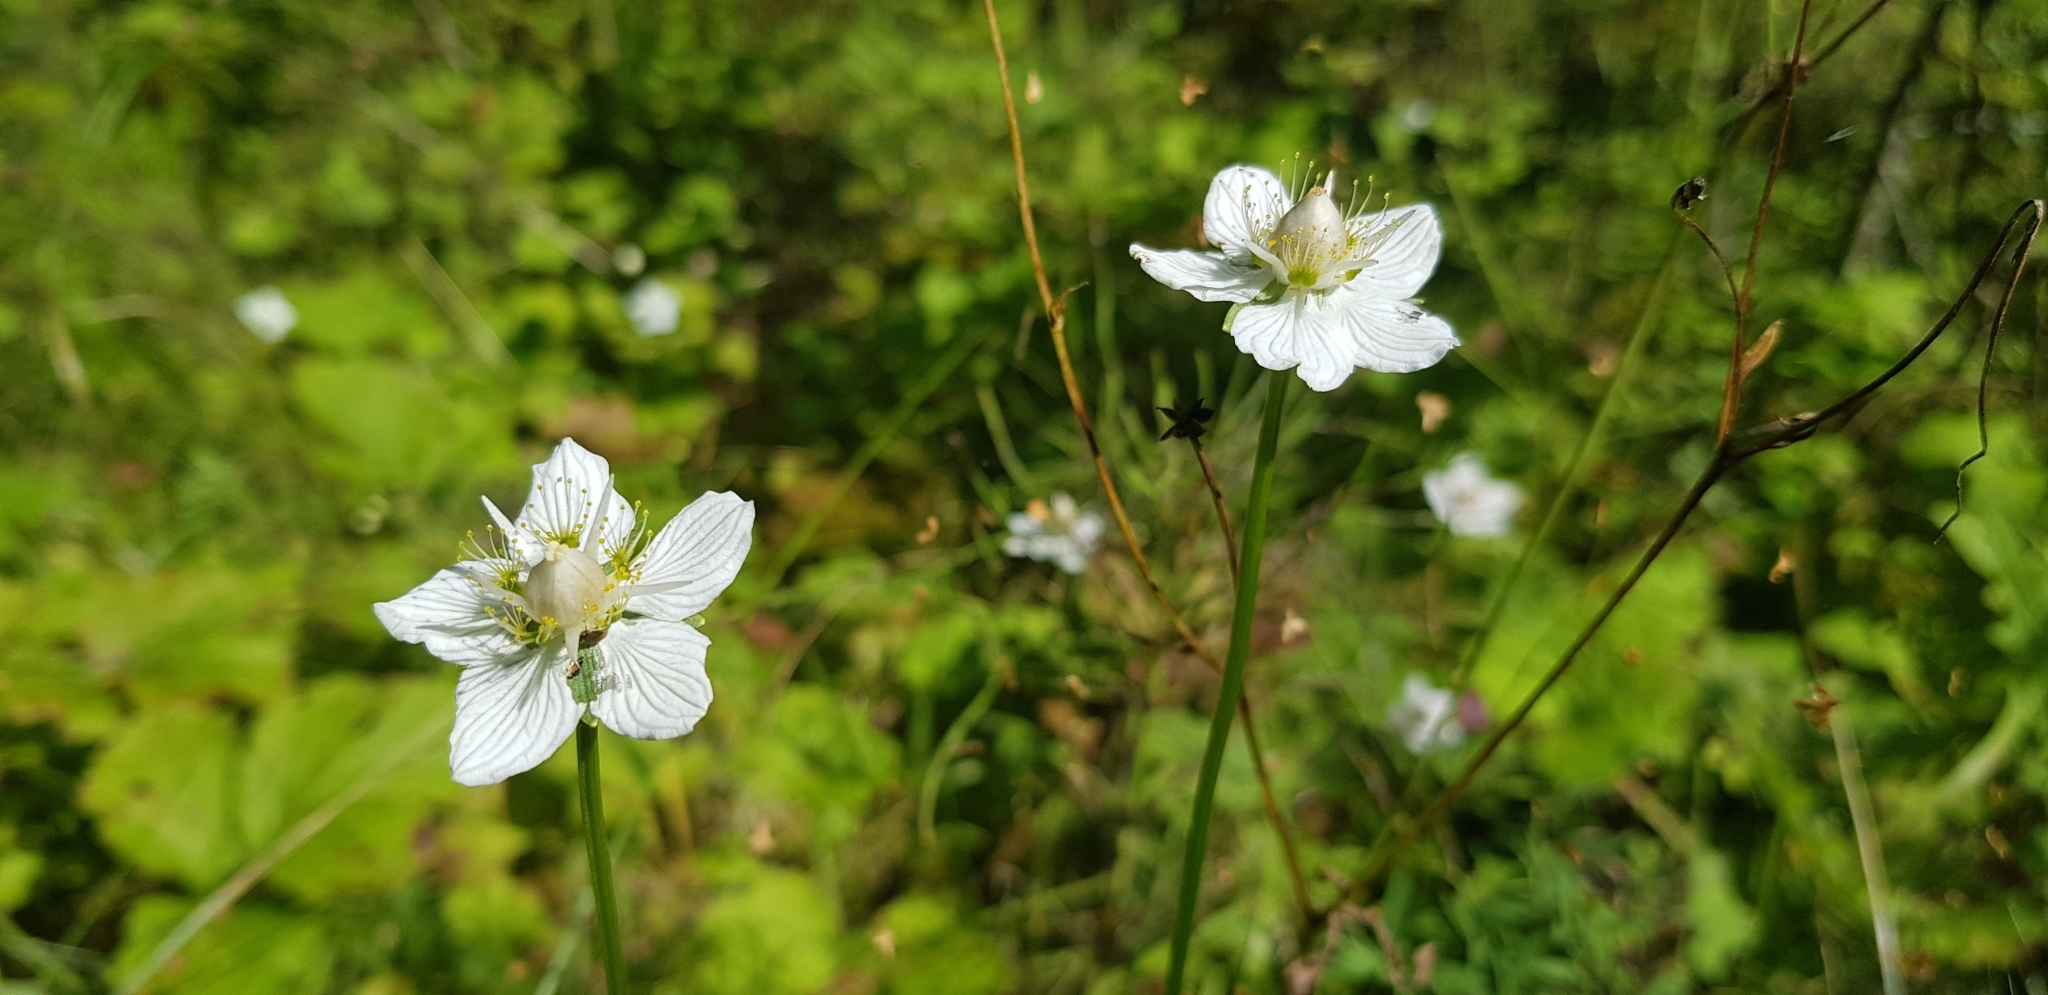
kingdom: Plantae
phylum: Tracheophyta
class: Magnoliopsida
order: Celastrales
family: Parnassiaceae
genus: Parnassia
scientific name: Parnassia palustris
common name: Grass-of-parnassus
